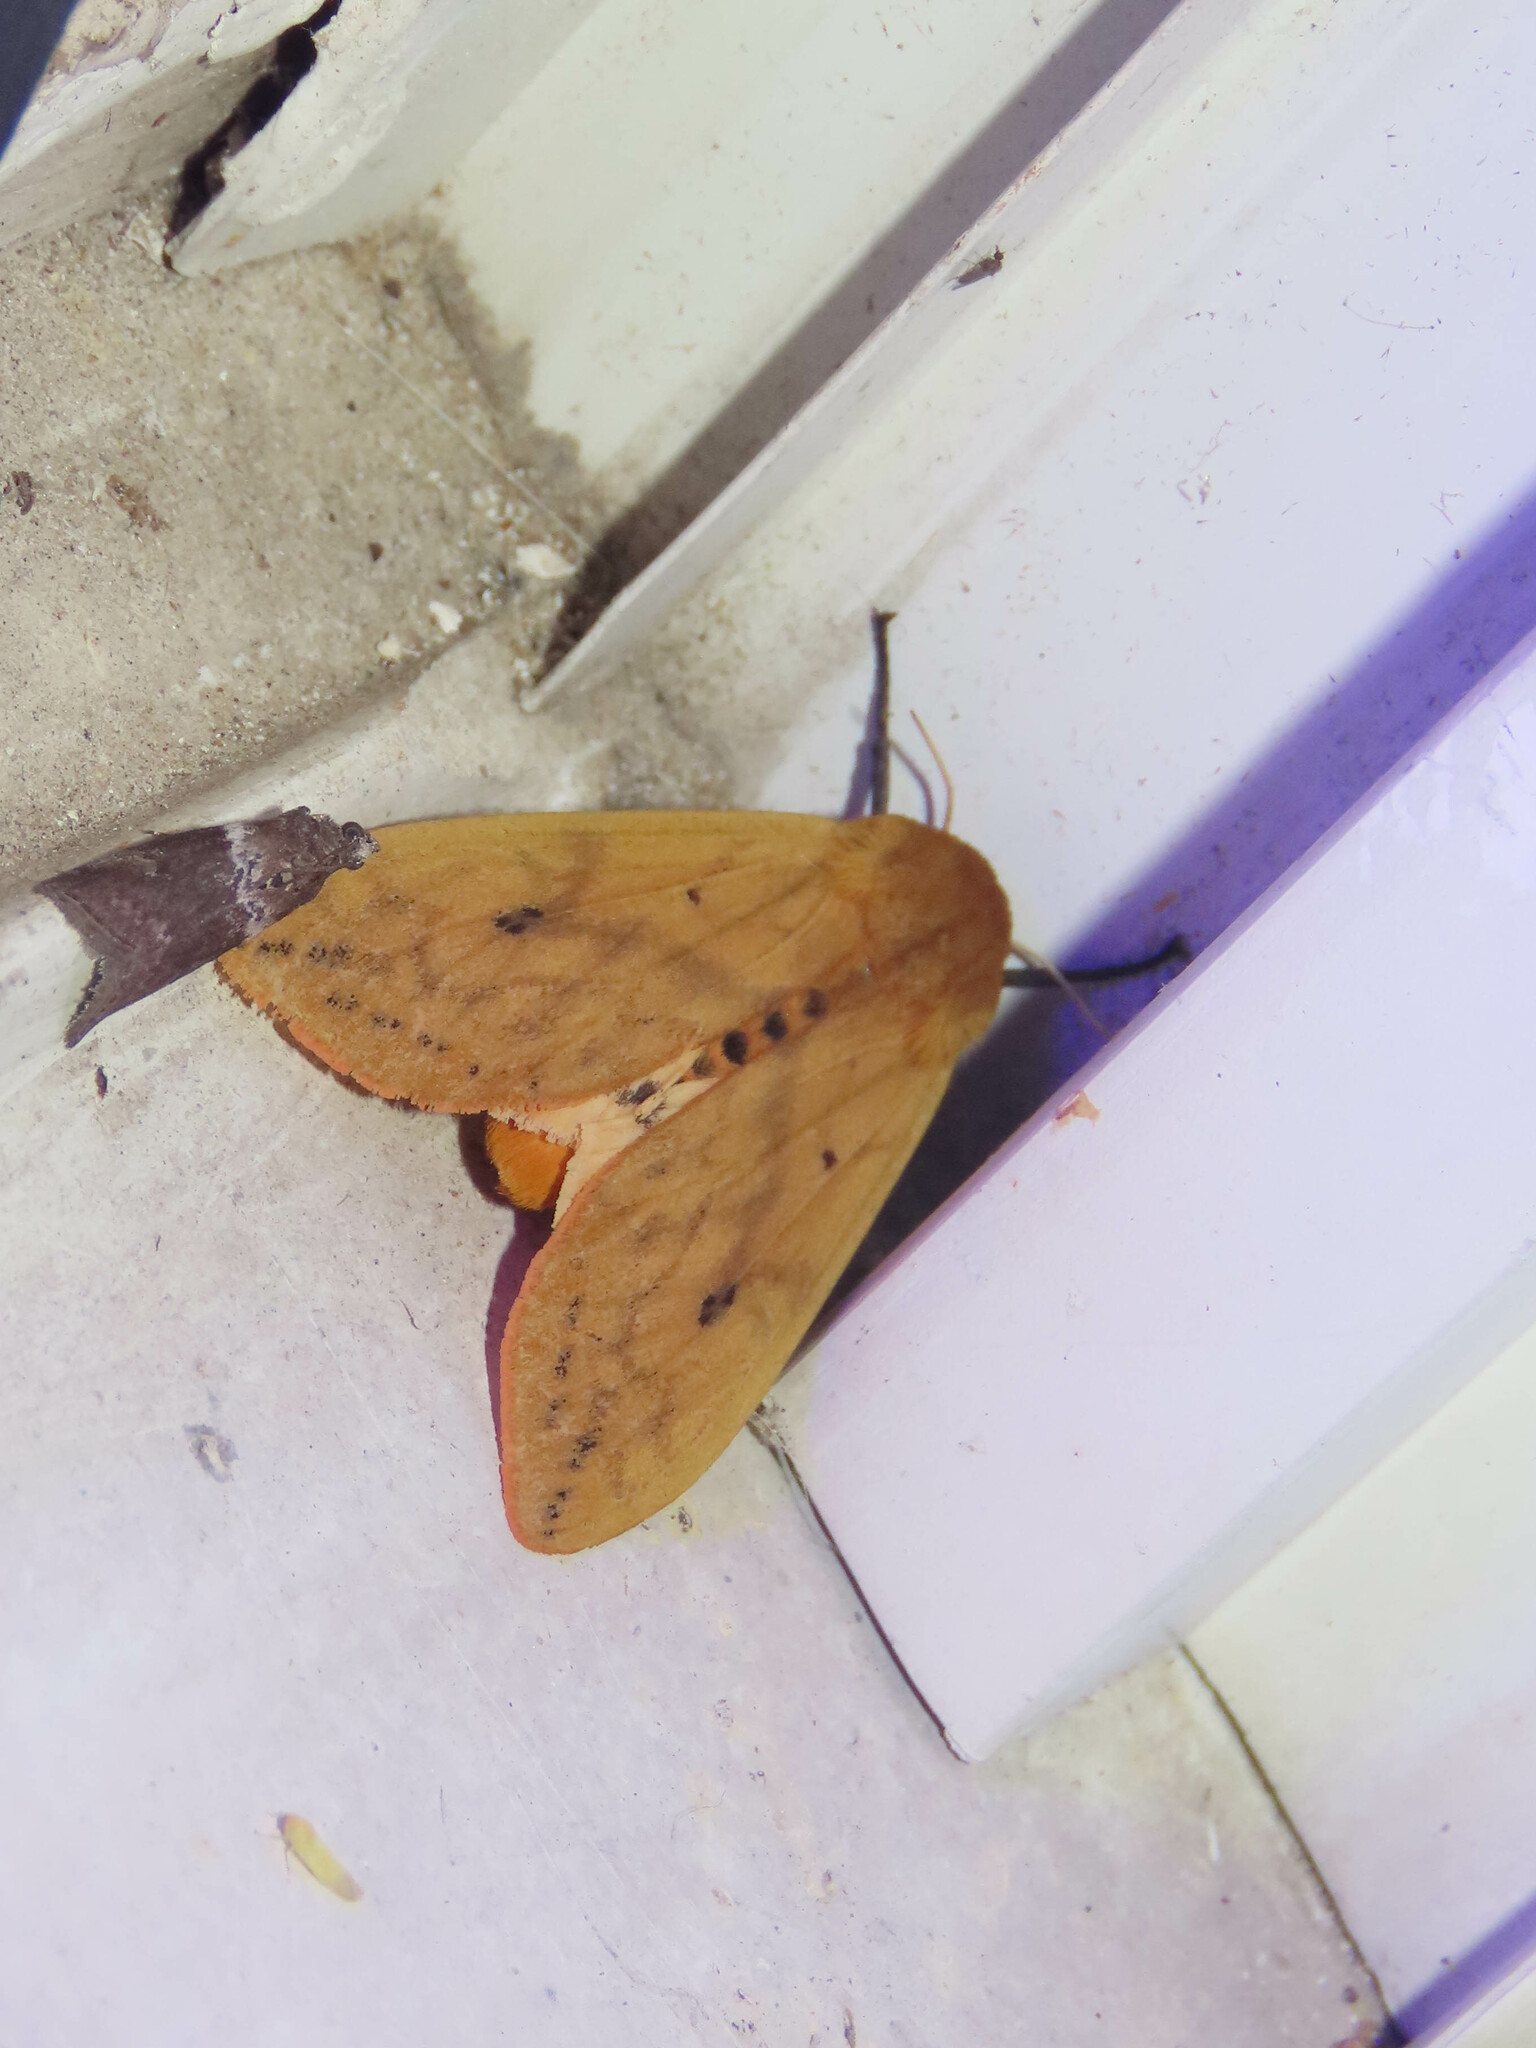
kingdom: Animalia
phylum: Arthropoda
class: Insecta
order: Lepidoptera
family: Erebidae
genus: Pyrrharctia
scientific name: Pyrrharctia isabella
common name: Isabella tiger moth
